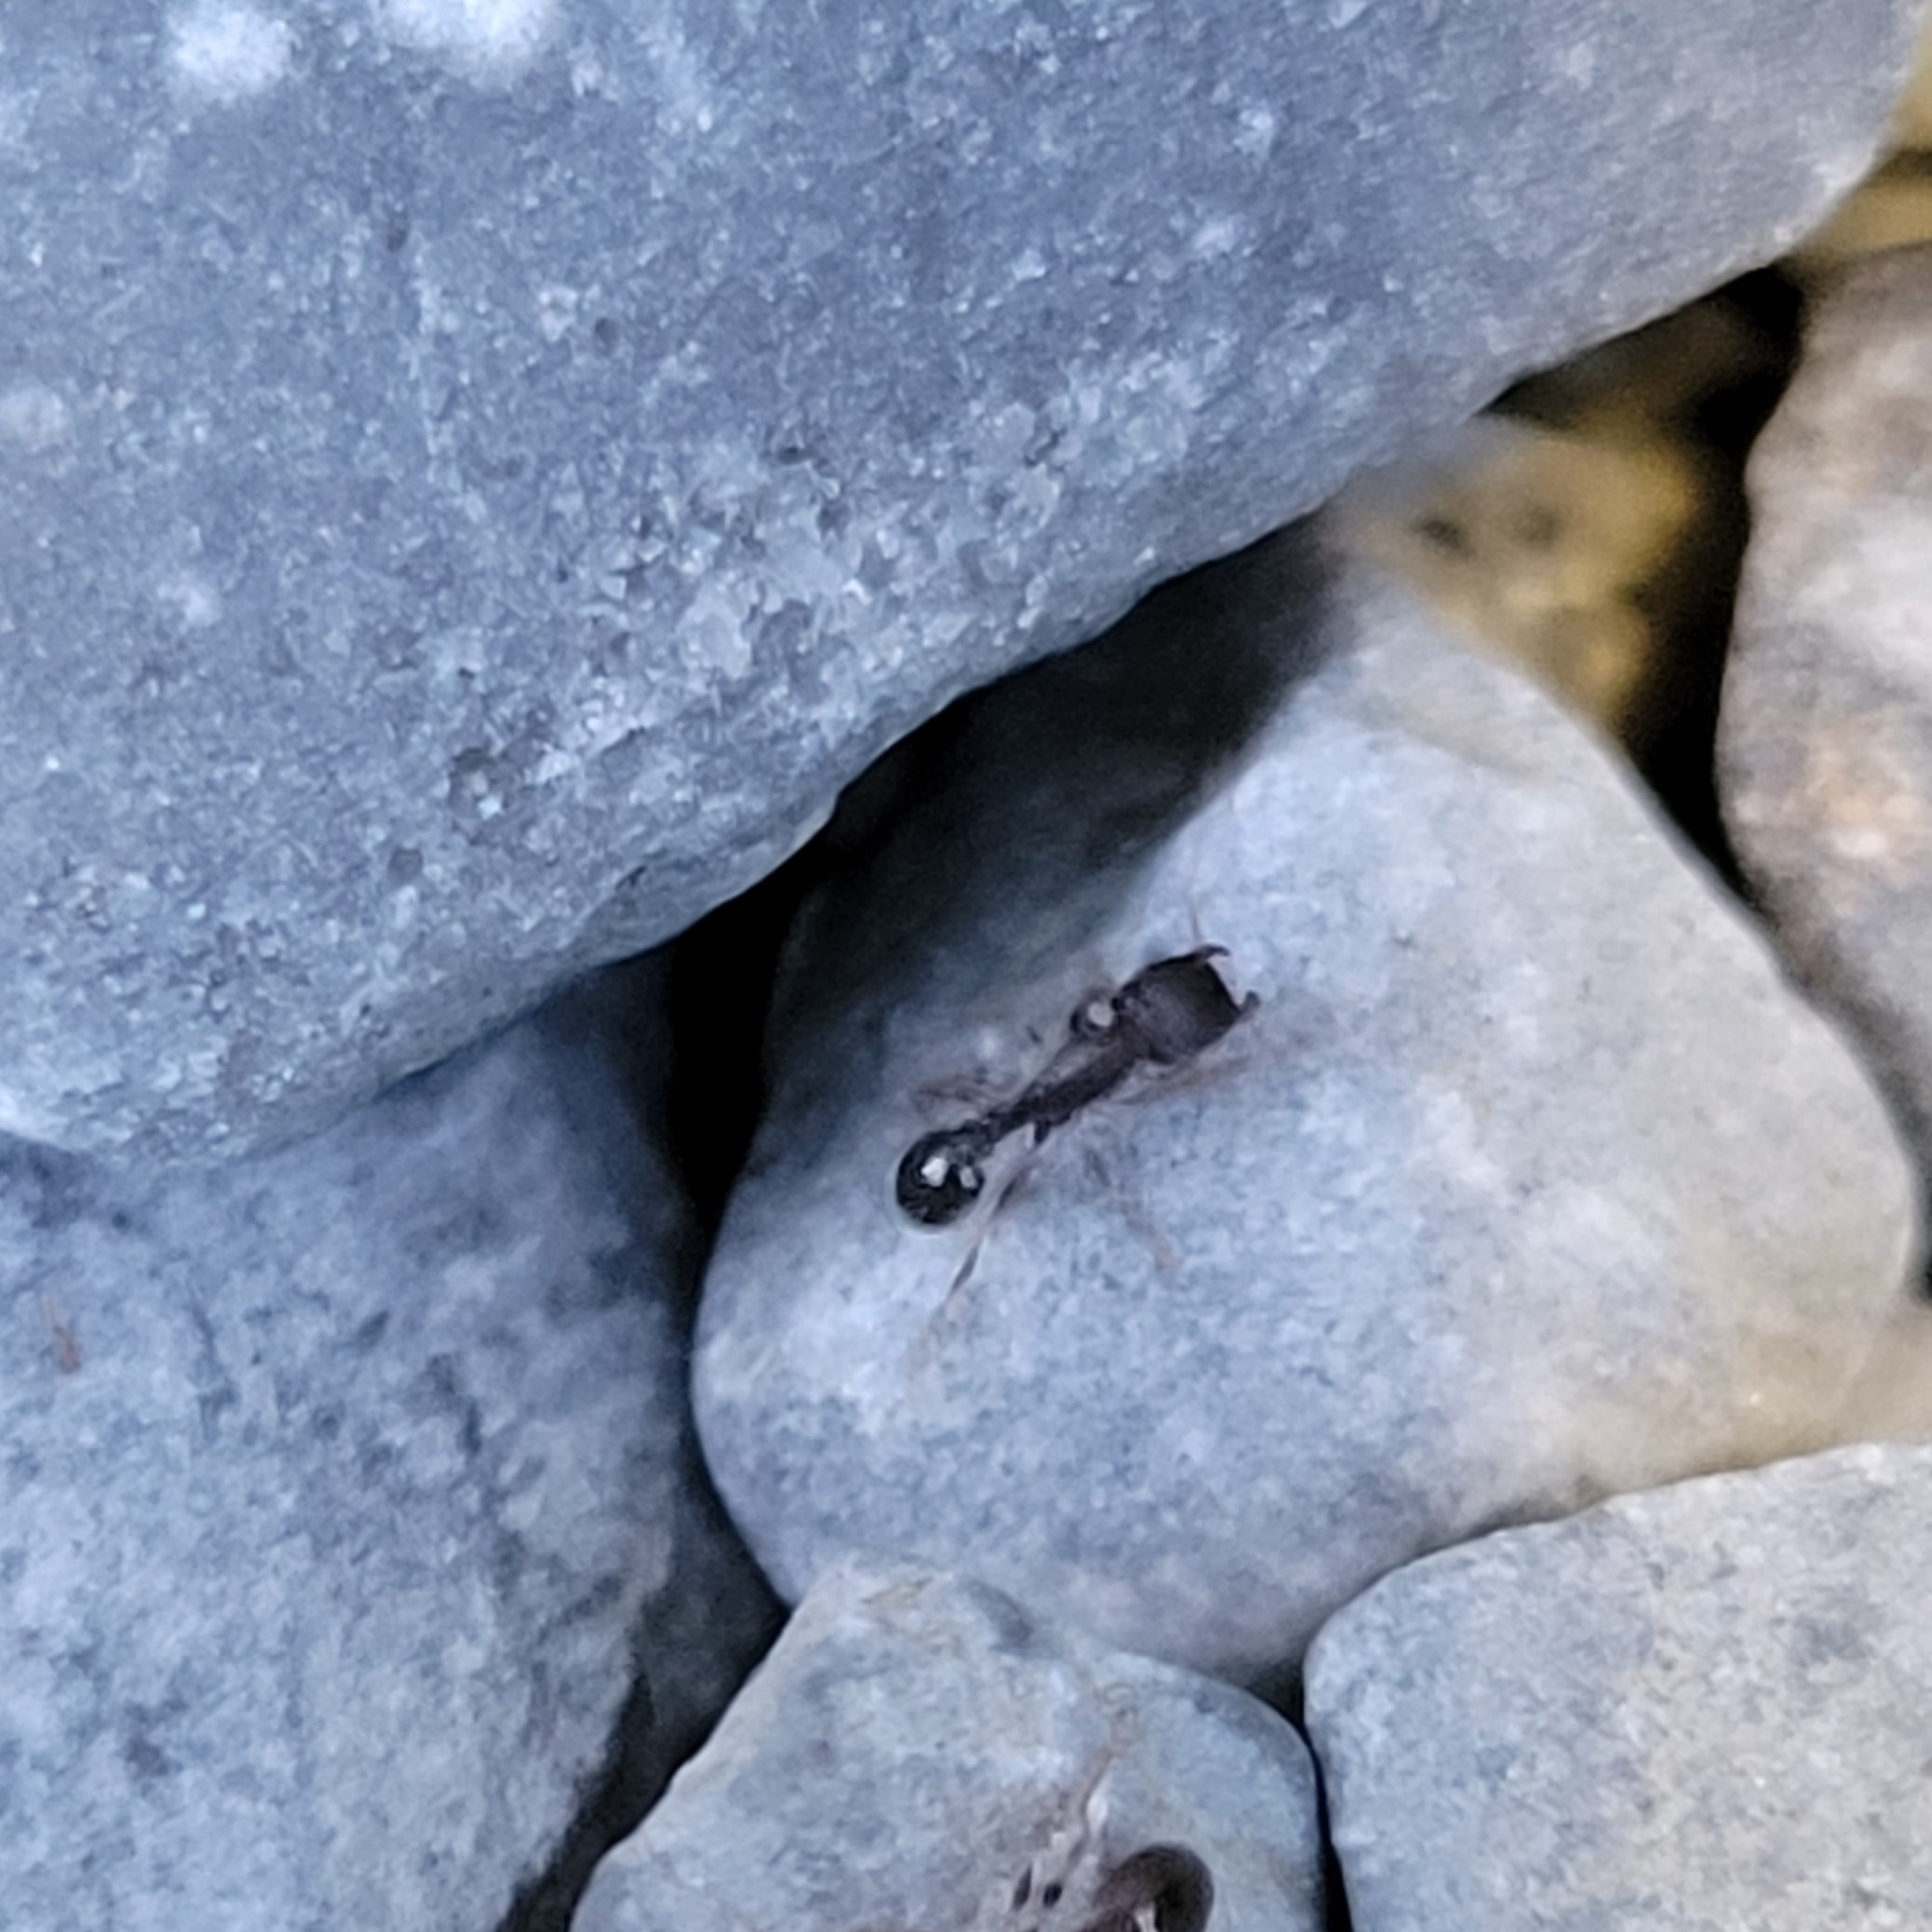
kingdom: Animalia
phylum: Arthropoda
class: Insecta
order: Hymenoptera
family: Formicidae
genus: Tetramorium
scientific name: Tetramorium immigrans
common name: Pavement ant
